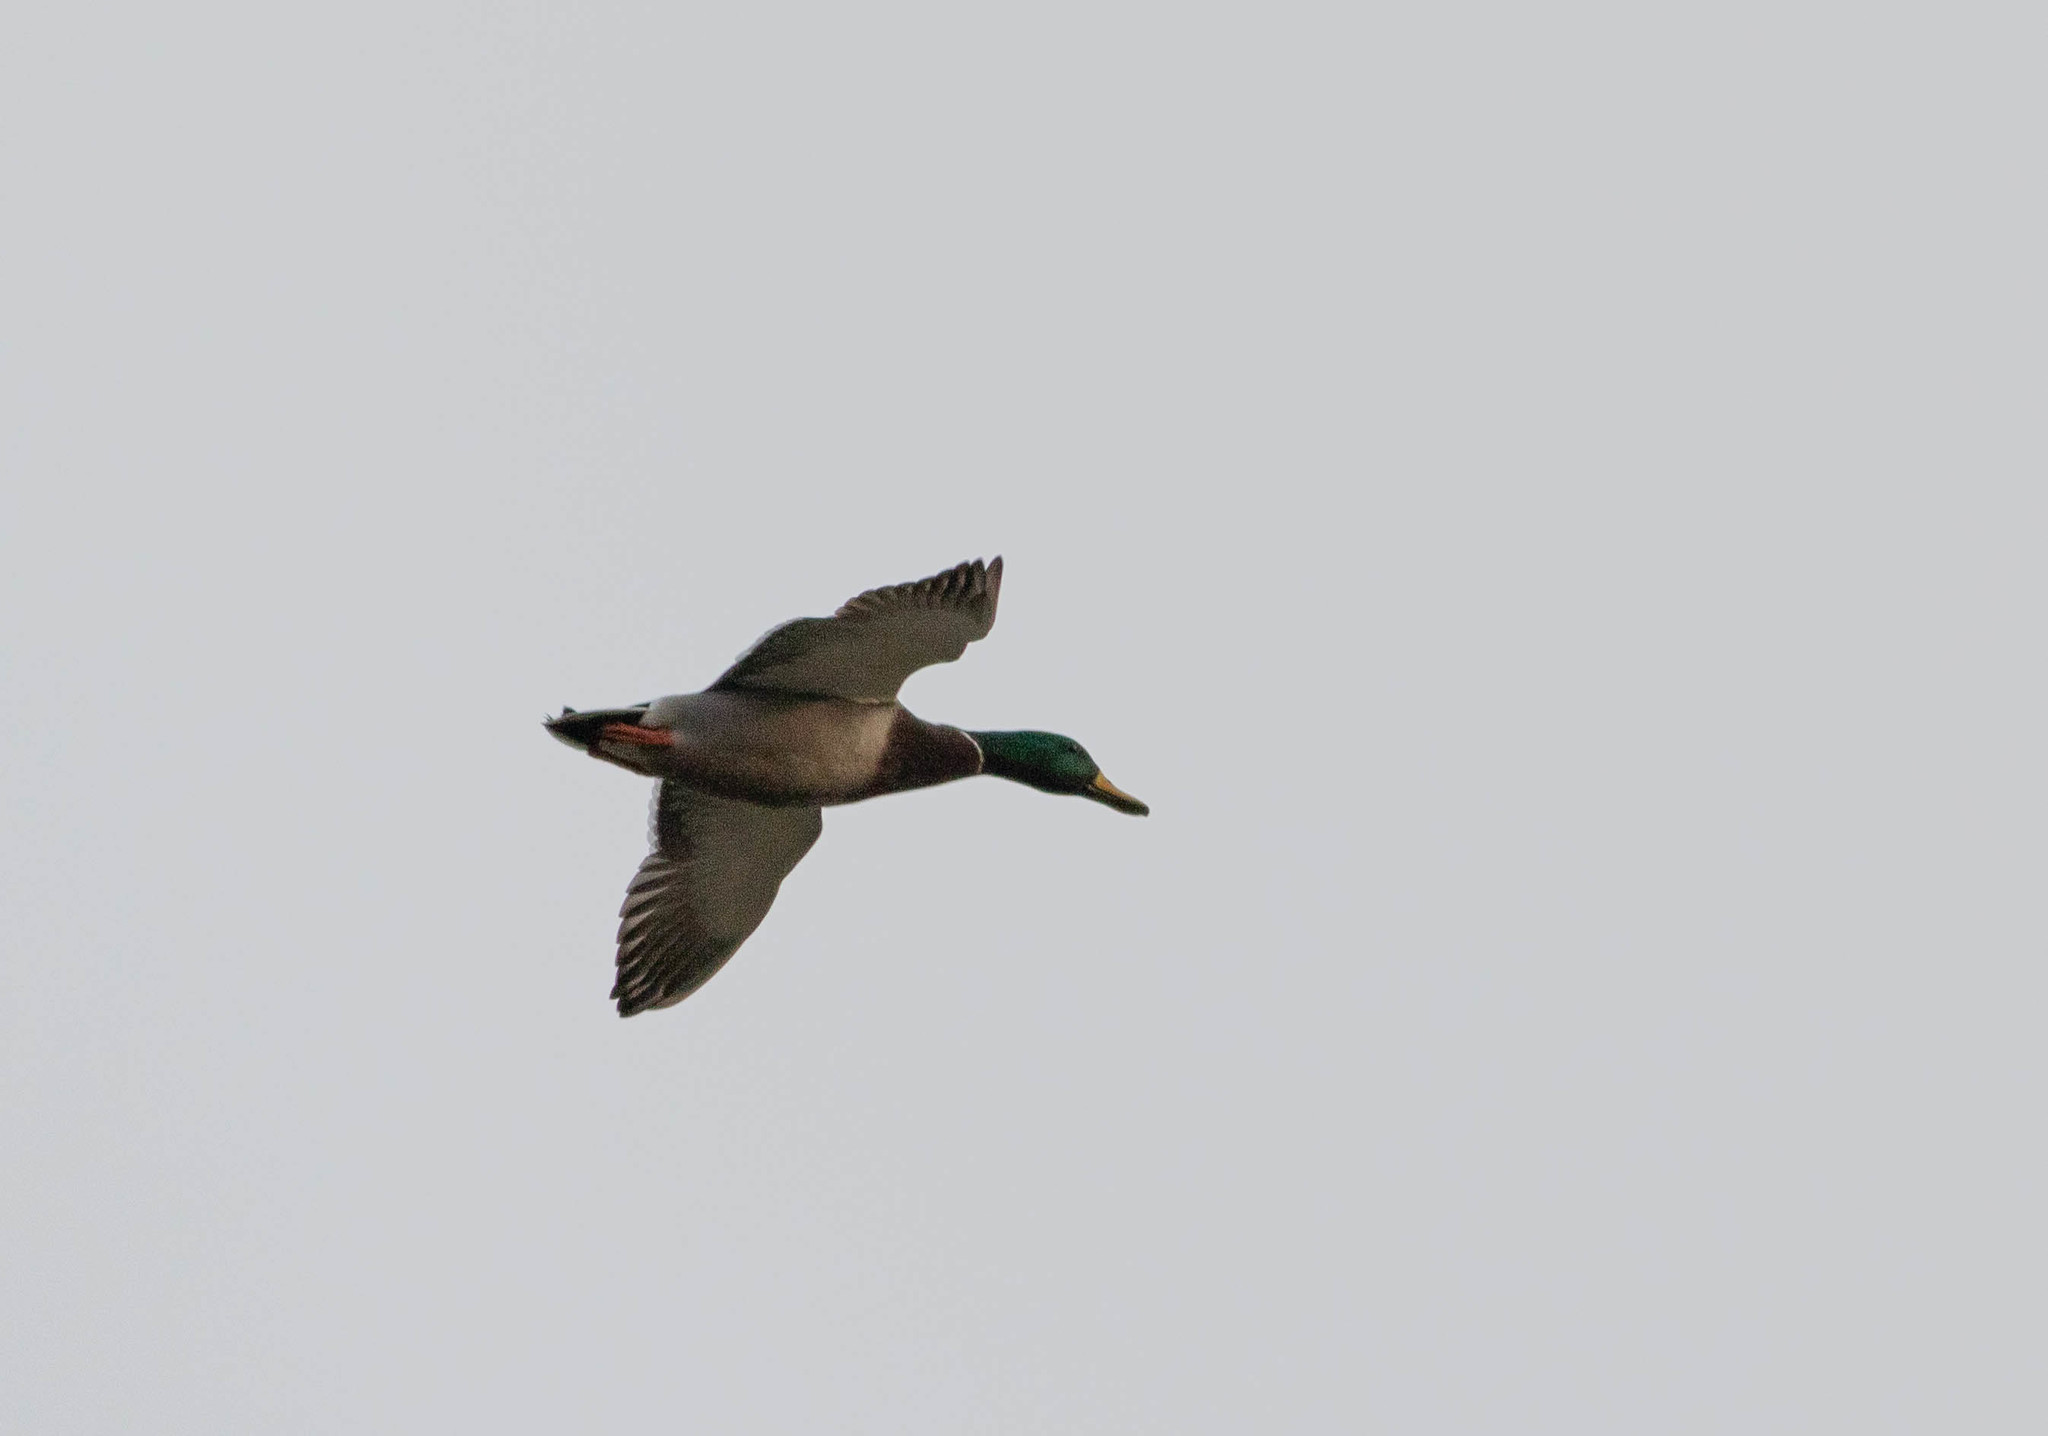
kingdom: Animalia
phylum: Chordata
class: Aves
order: Anseriformes
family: Anatidae
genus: Anas
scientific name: Anas platyrhynchos
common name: Mallard
